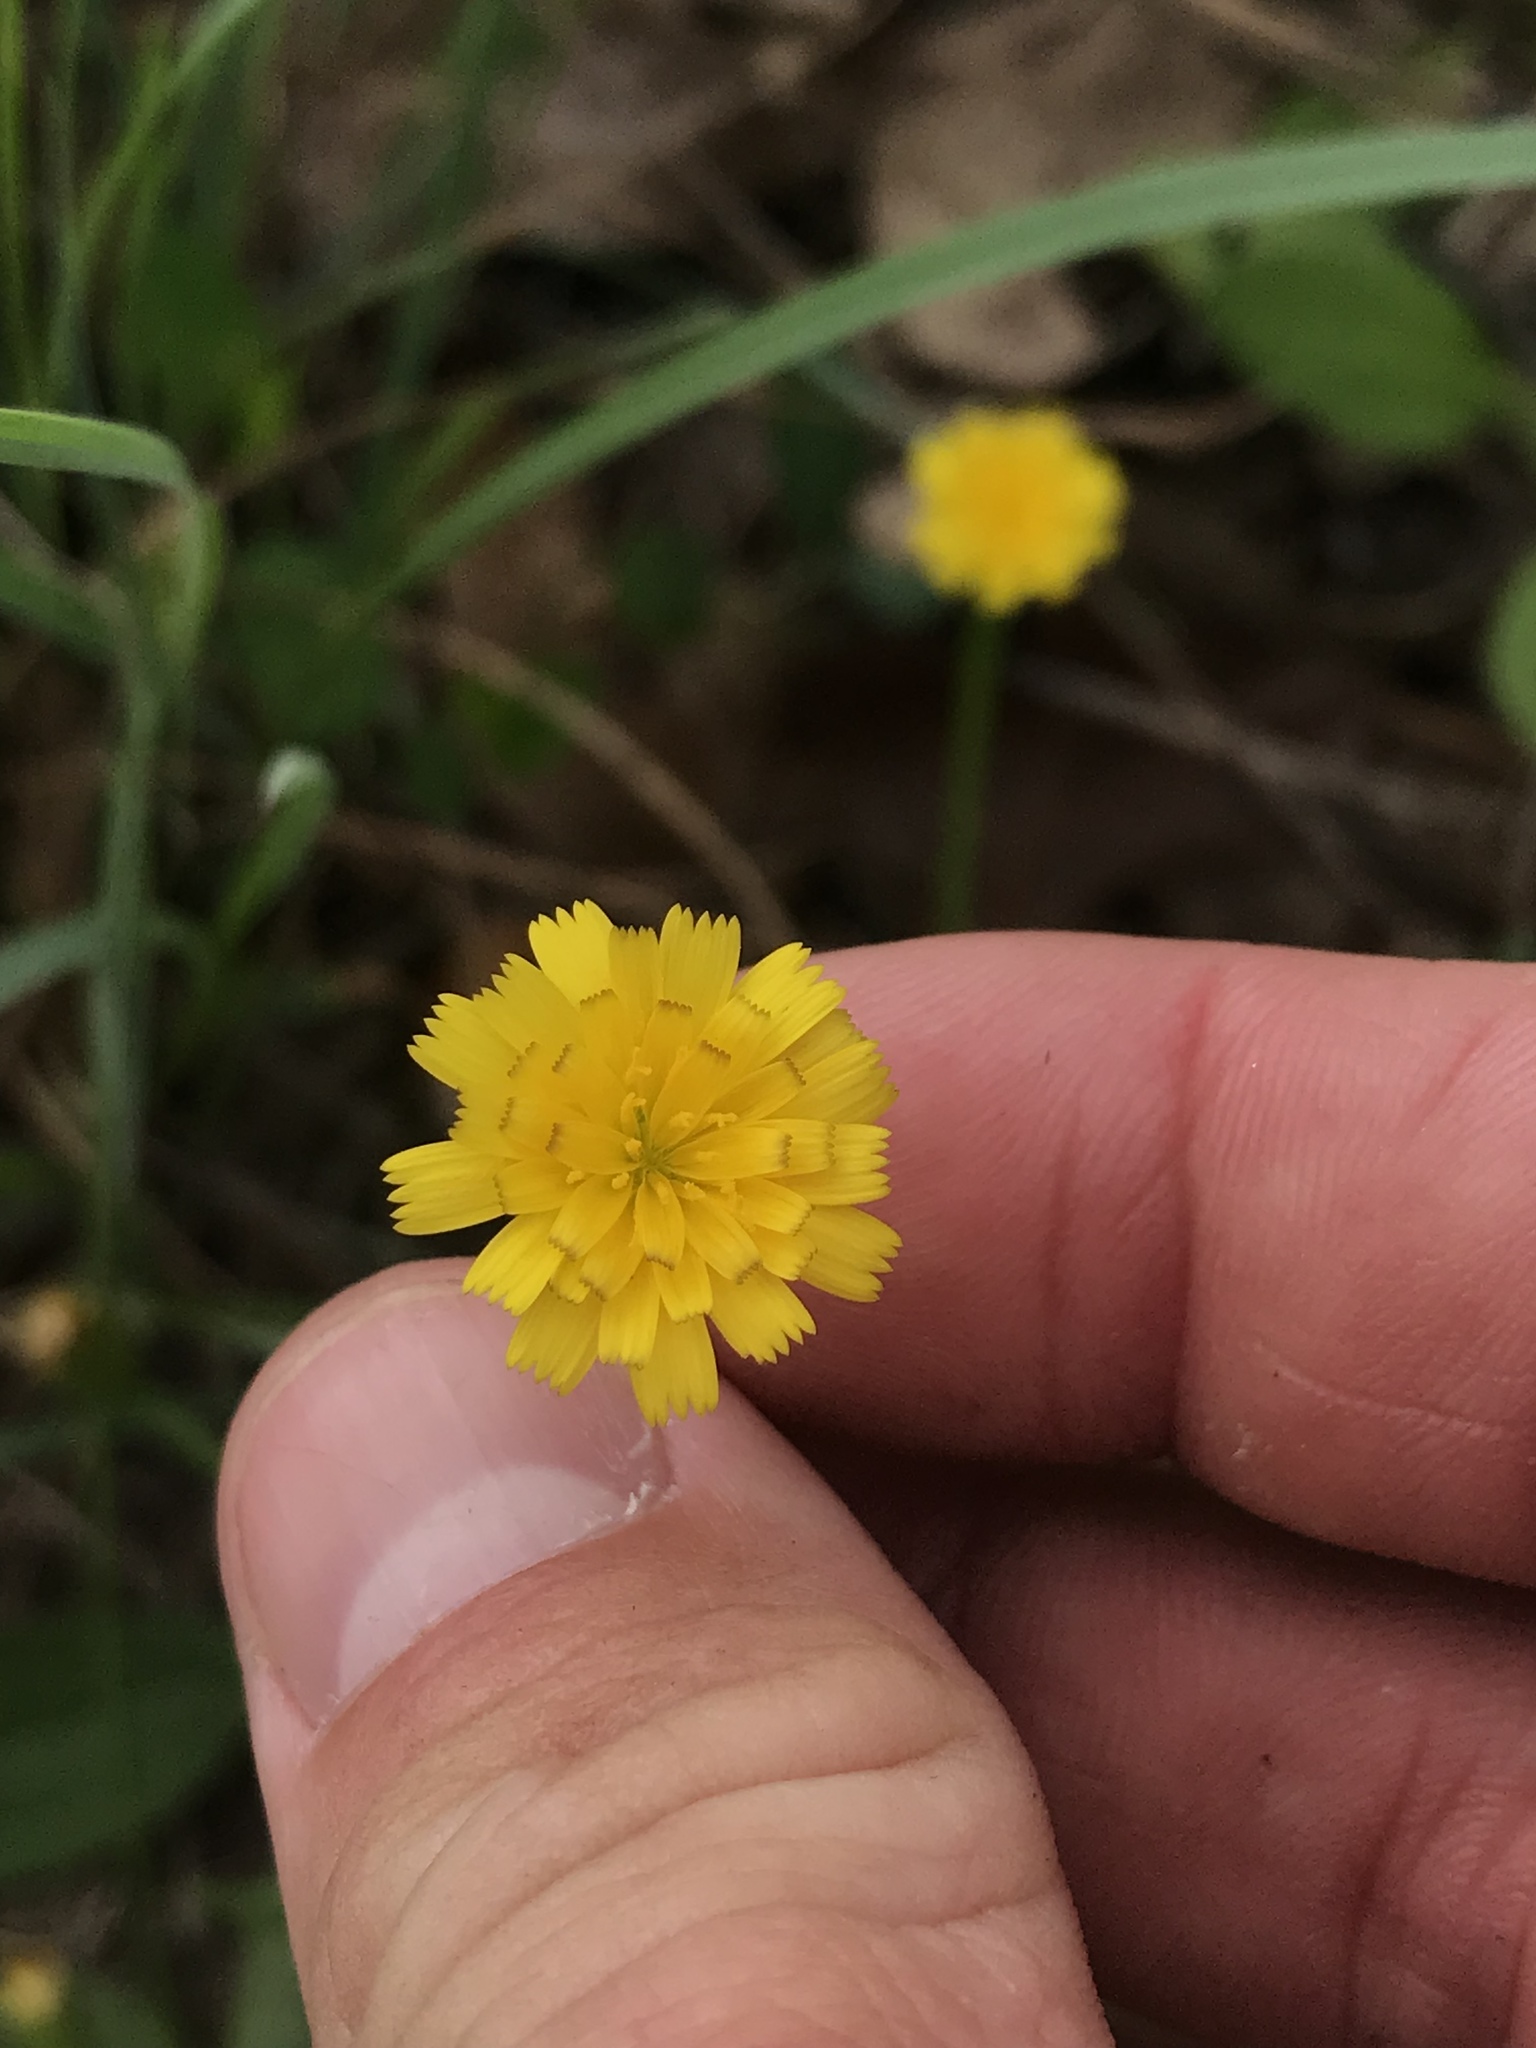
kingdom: Plantae
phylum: Tracheophyta
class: Magnoliopsida
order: Asterales
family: Asteraceae
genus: Hedypnois
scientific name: Hedypnois rhagadioloides
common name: Cretan weed
